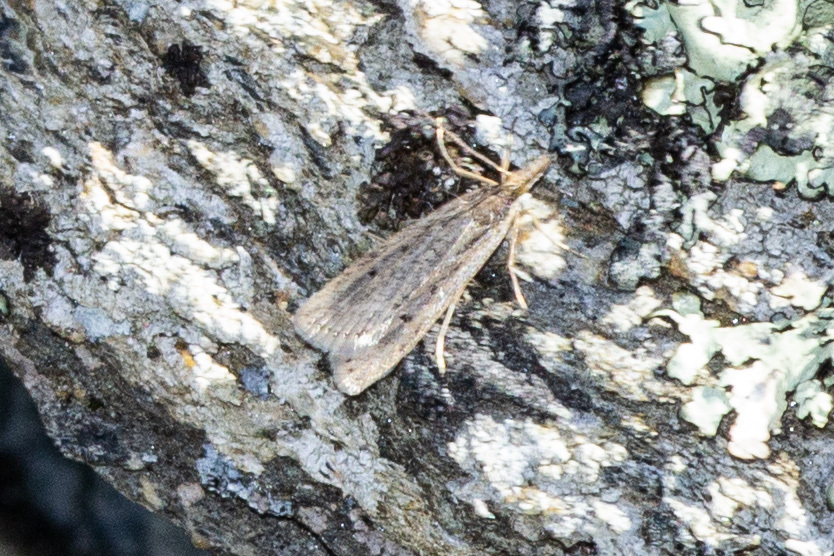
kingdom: Animalia
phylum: Arthropoda
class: Insecta
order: Lepidoptera
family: Crambidae
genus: Eudonia
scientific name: Eudonia sabulosella
